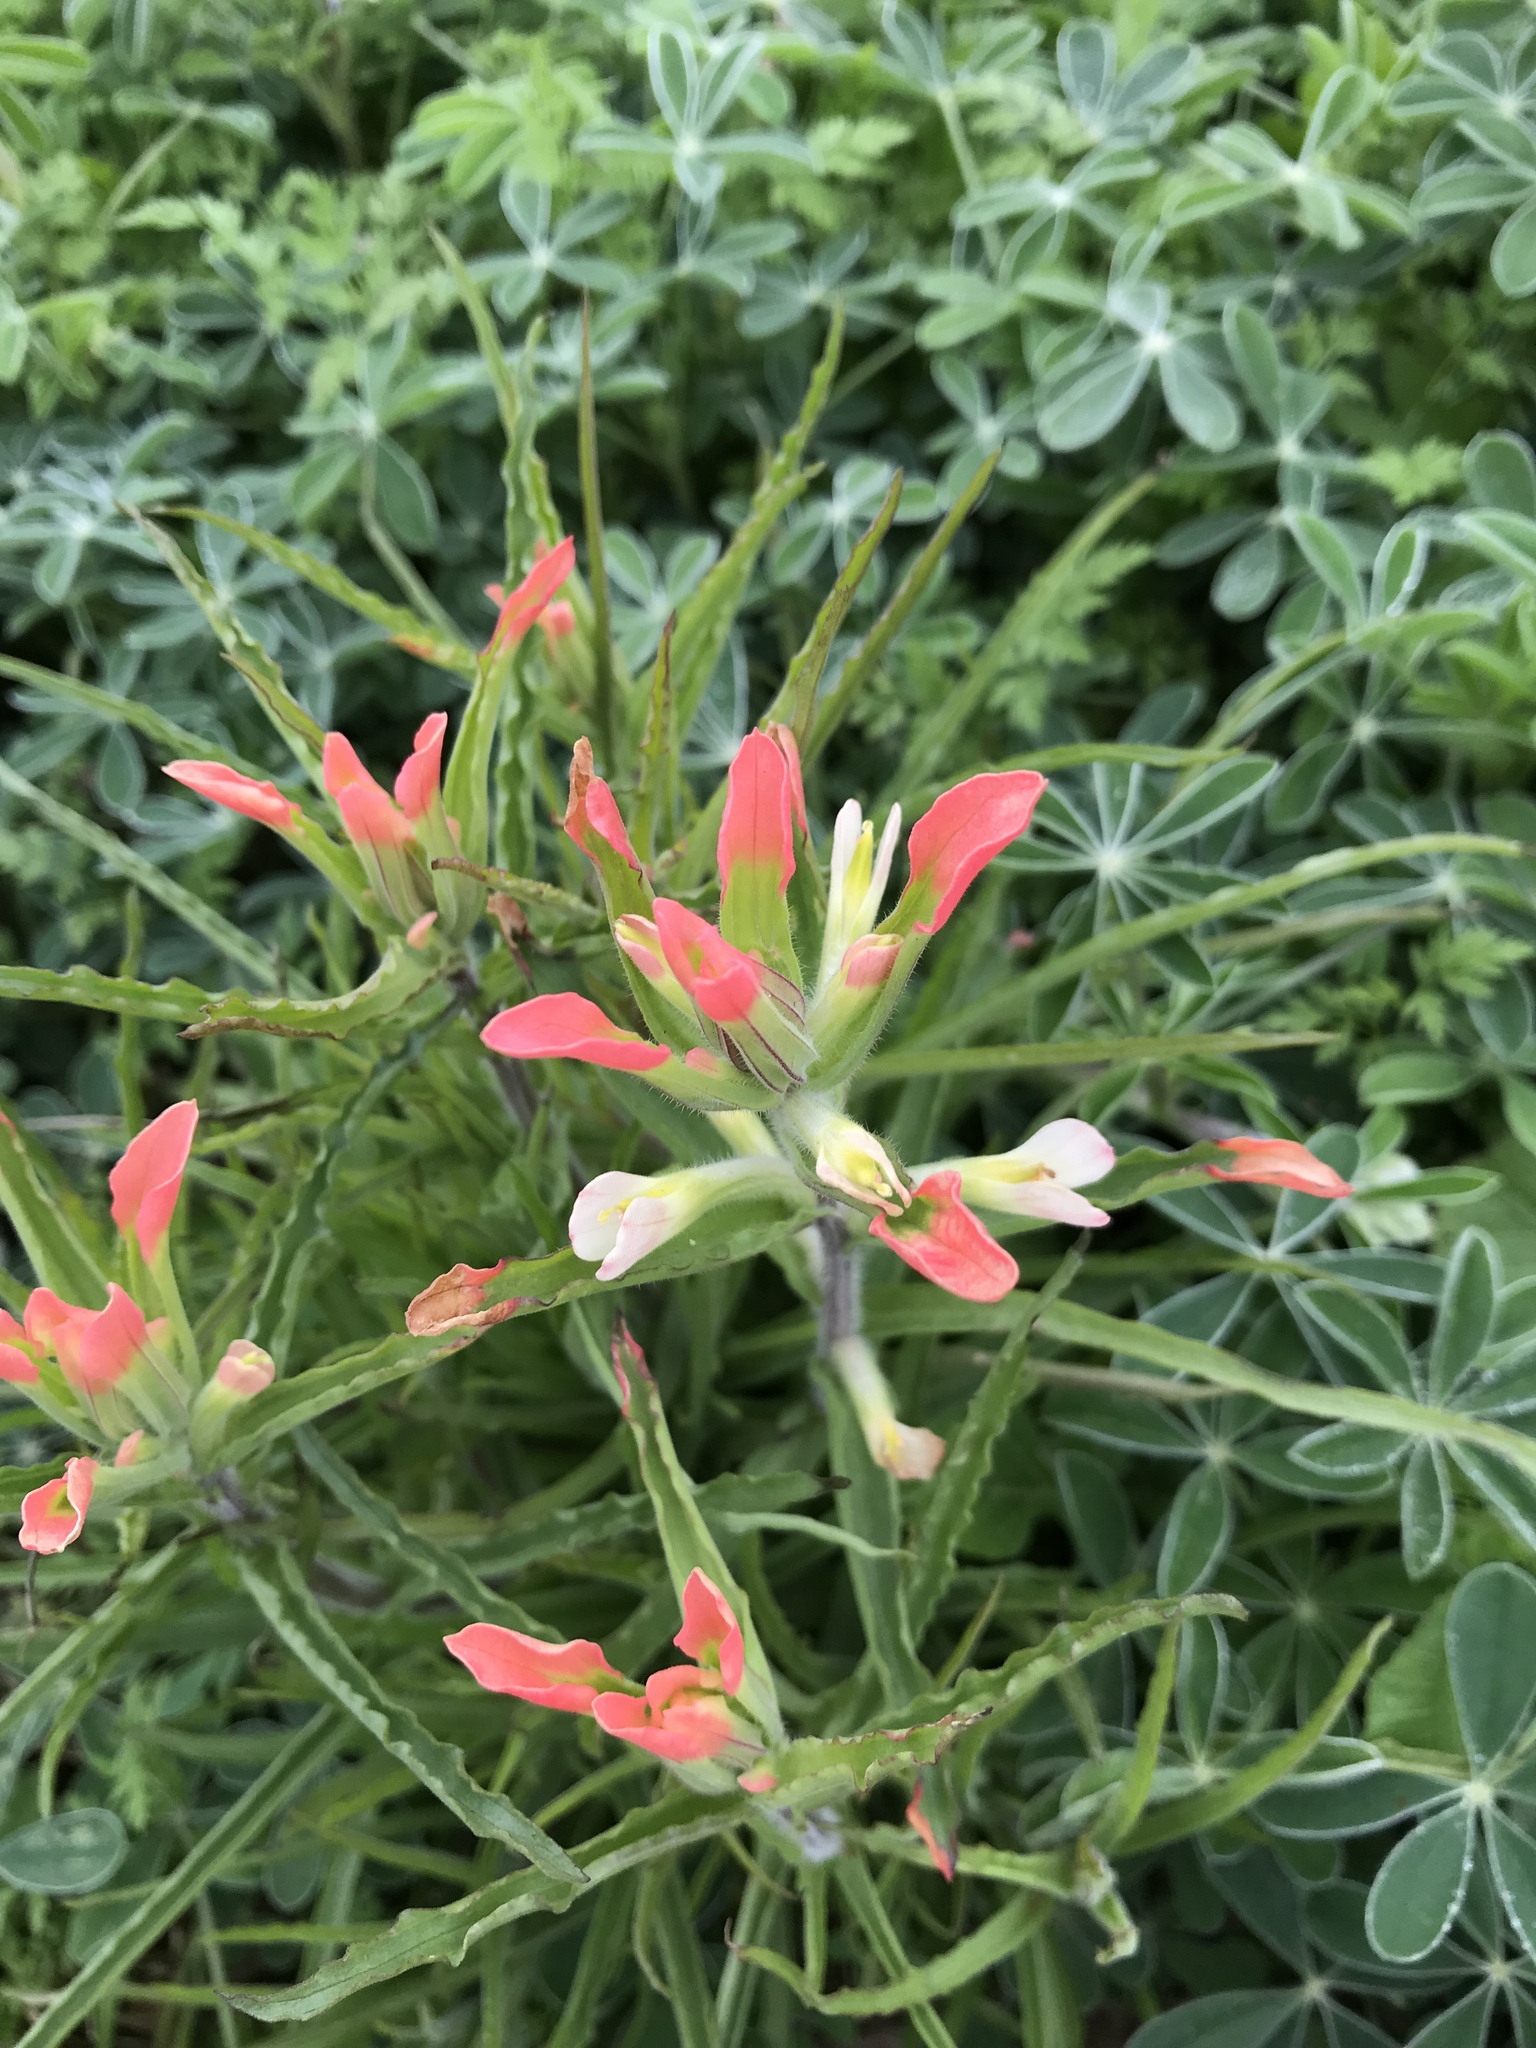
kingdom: Plantae
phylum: Tracheophyta
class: Magnoliopsida
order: Lamiales
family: Orobanchaceae
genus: Castilleja
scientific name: Castilleja indivisa
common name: Texas paintbrush
